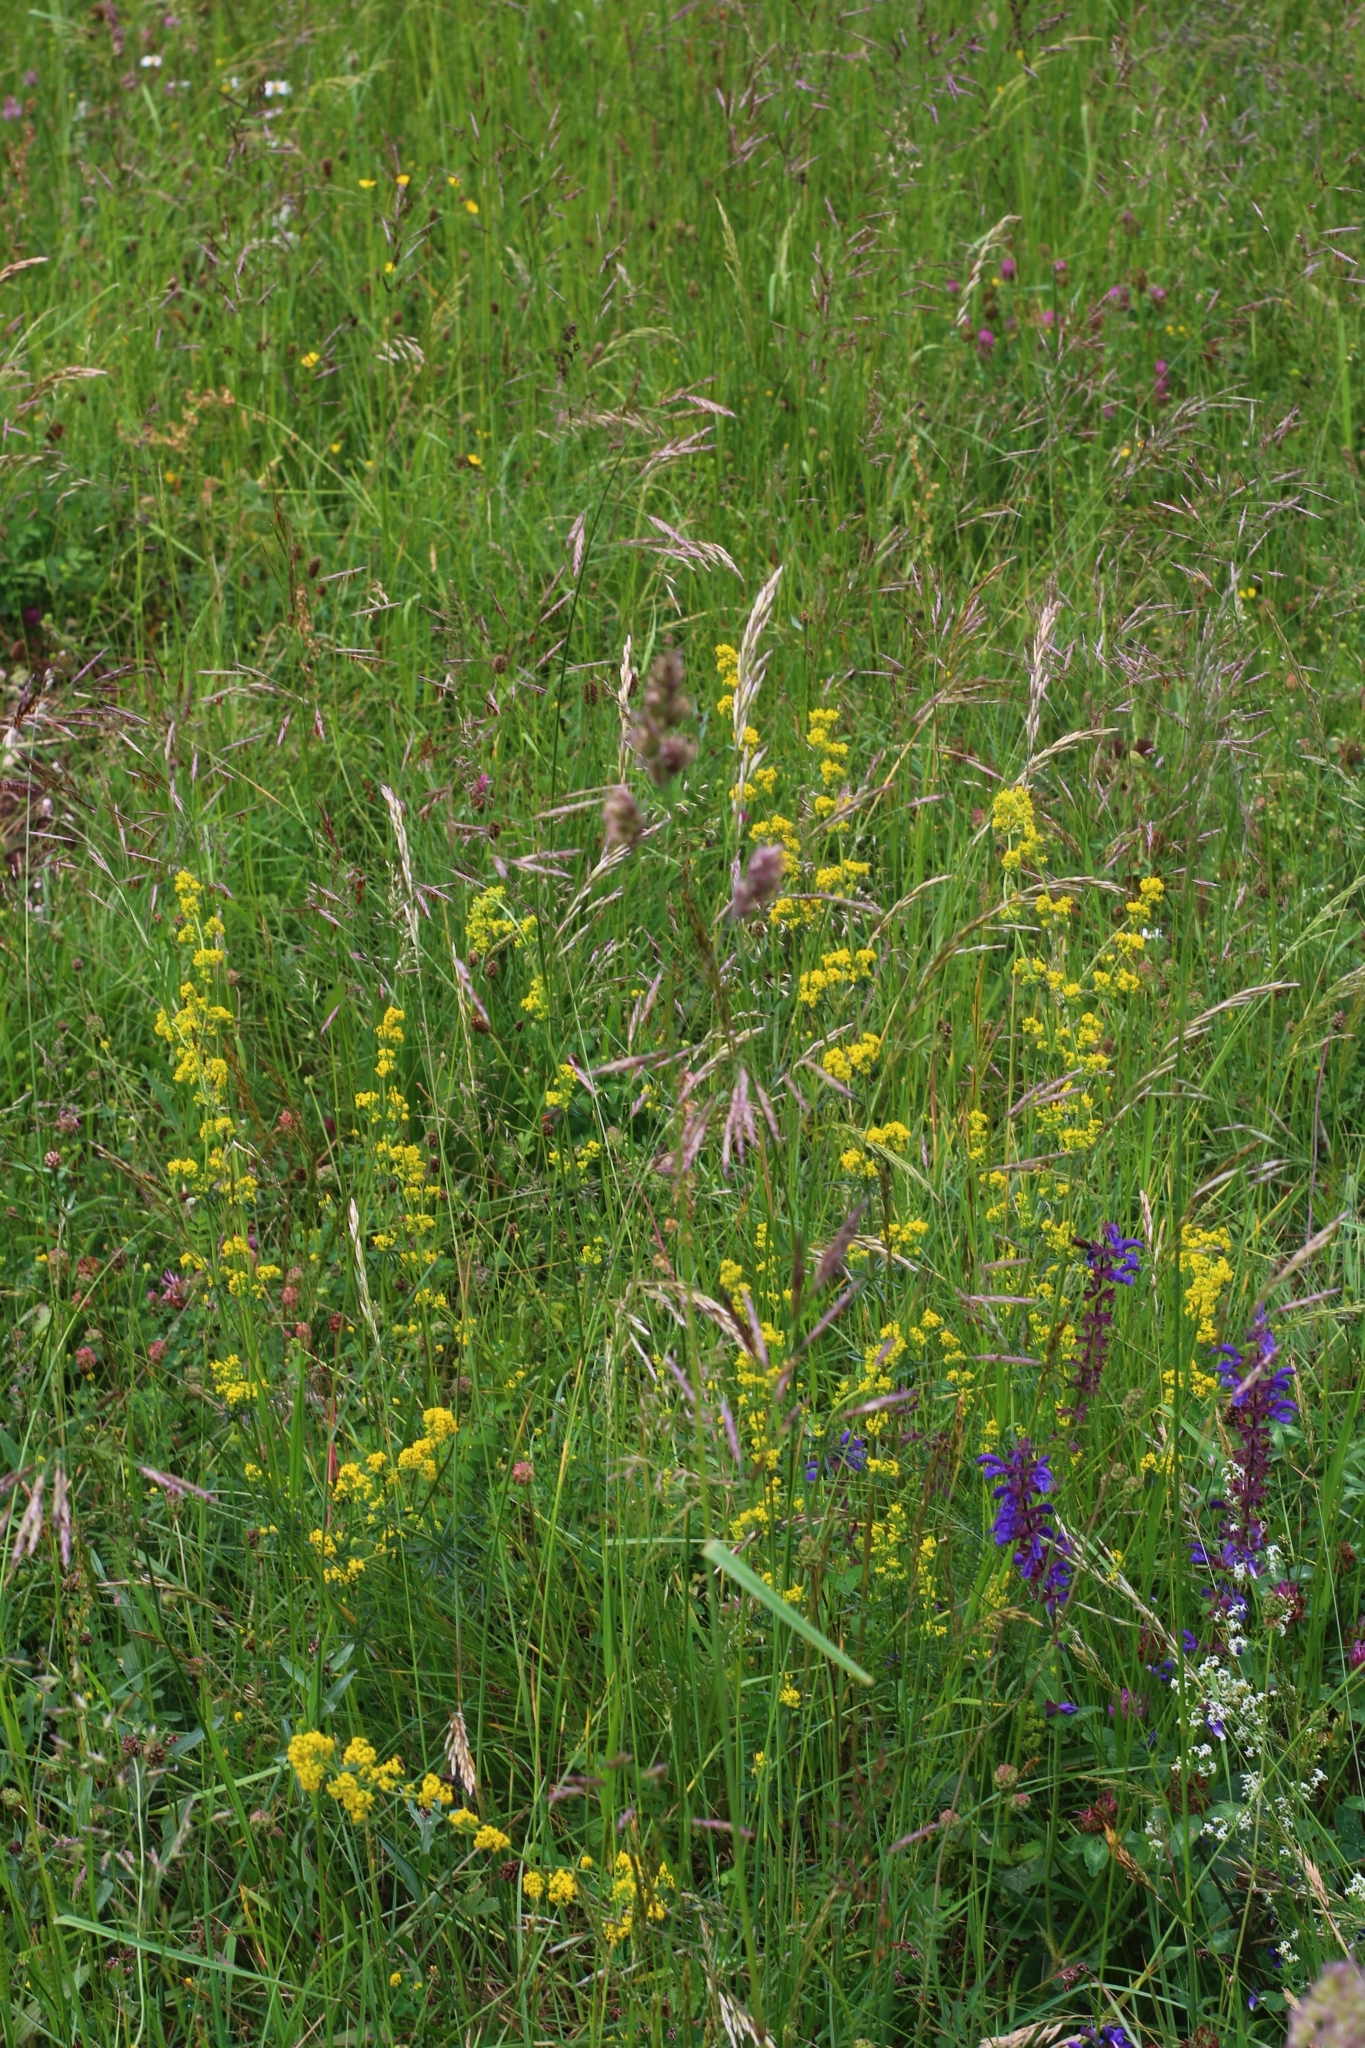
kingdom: Plantae
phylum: Tracheophyta
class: Magnoliopsida
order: Gentianales
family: Rubiaceae
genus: Galium
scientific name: Galium verum
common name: Lady's bedstraw
